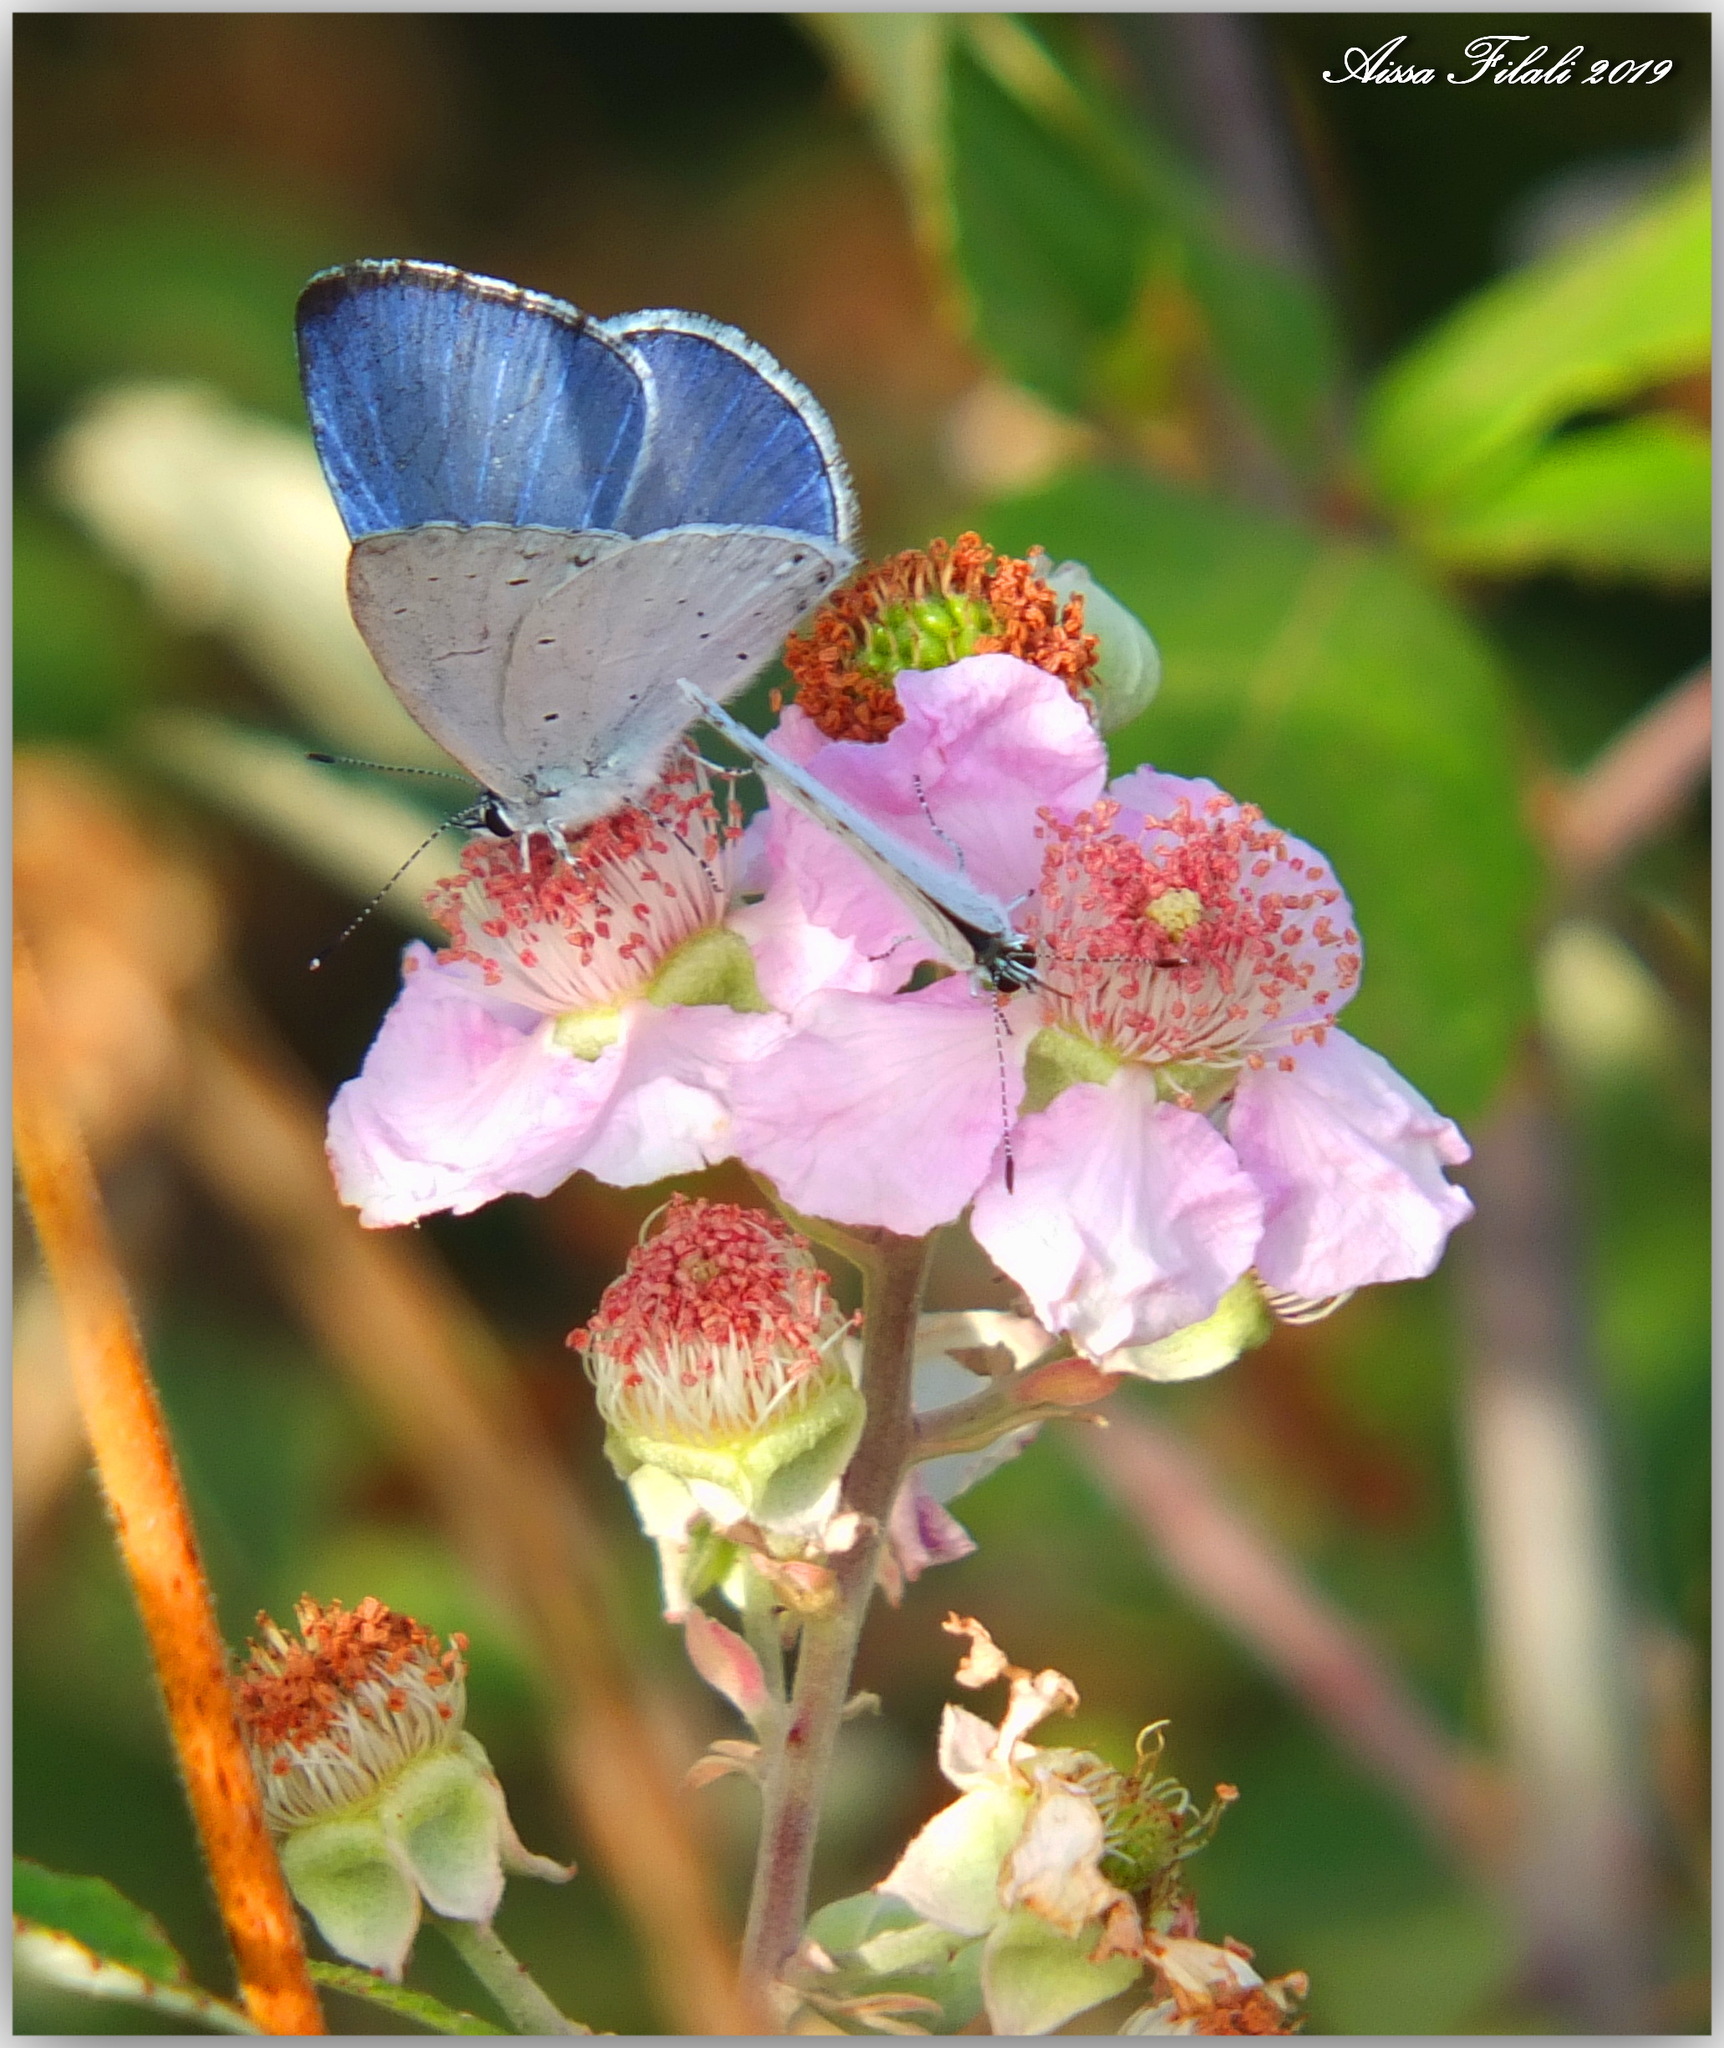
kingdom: Animalia
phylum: Arthropoda
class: Insecta
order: Lepidoptera
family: Lycaenidae
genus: Celastrina
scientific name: Celastrina argiolus
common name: Holly blue
